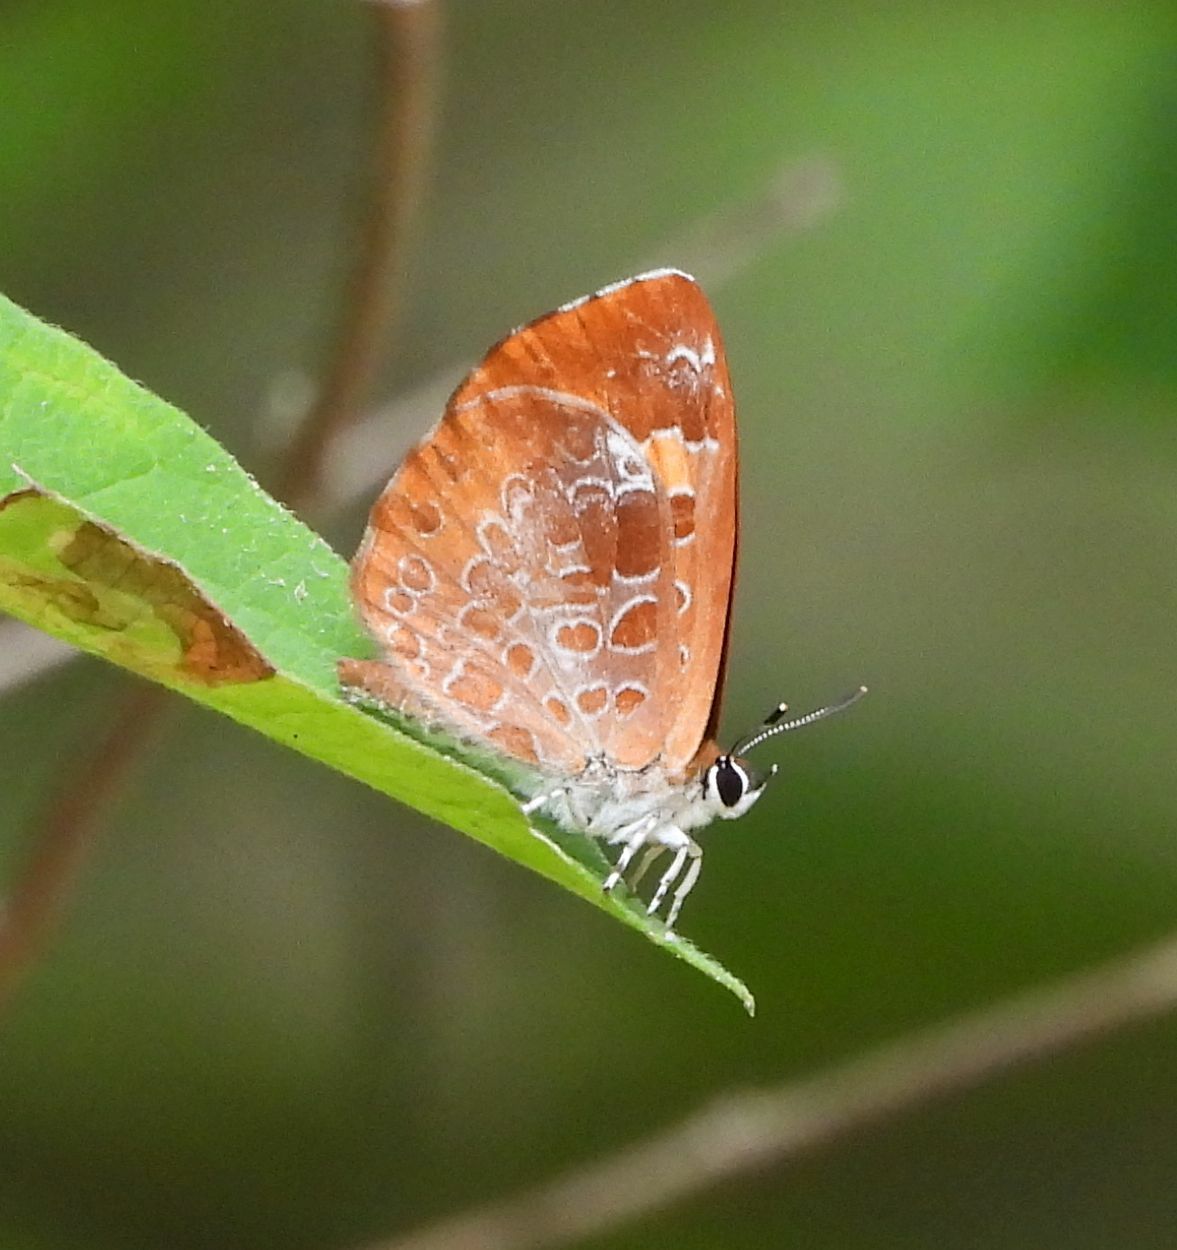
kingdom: Animalia
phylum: Arthropoda
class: Insecta
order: Lepidoptera
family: Lycaenidae
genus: Feniseca
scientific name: Feniseca tarquinius
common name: Harvester
